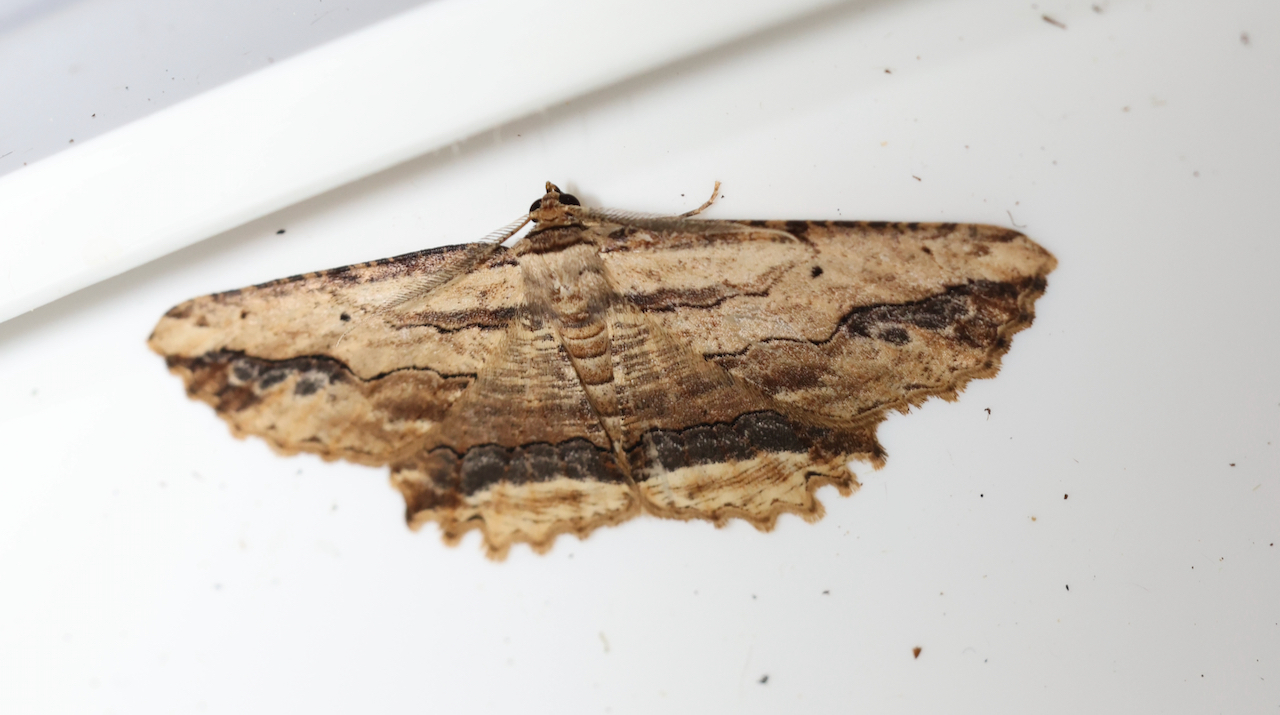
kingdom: Animalia
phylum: Arthropoda
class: Insecta
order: Lepidoptera
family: Geometridae
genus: Menophra
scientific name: Menophra abruptaria
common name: Waved umber
